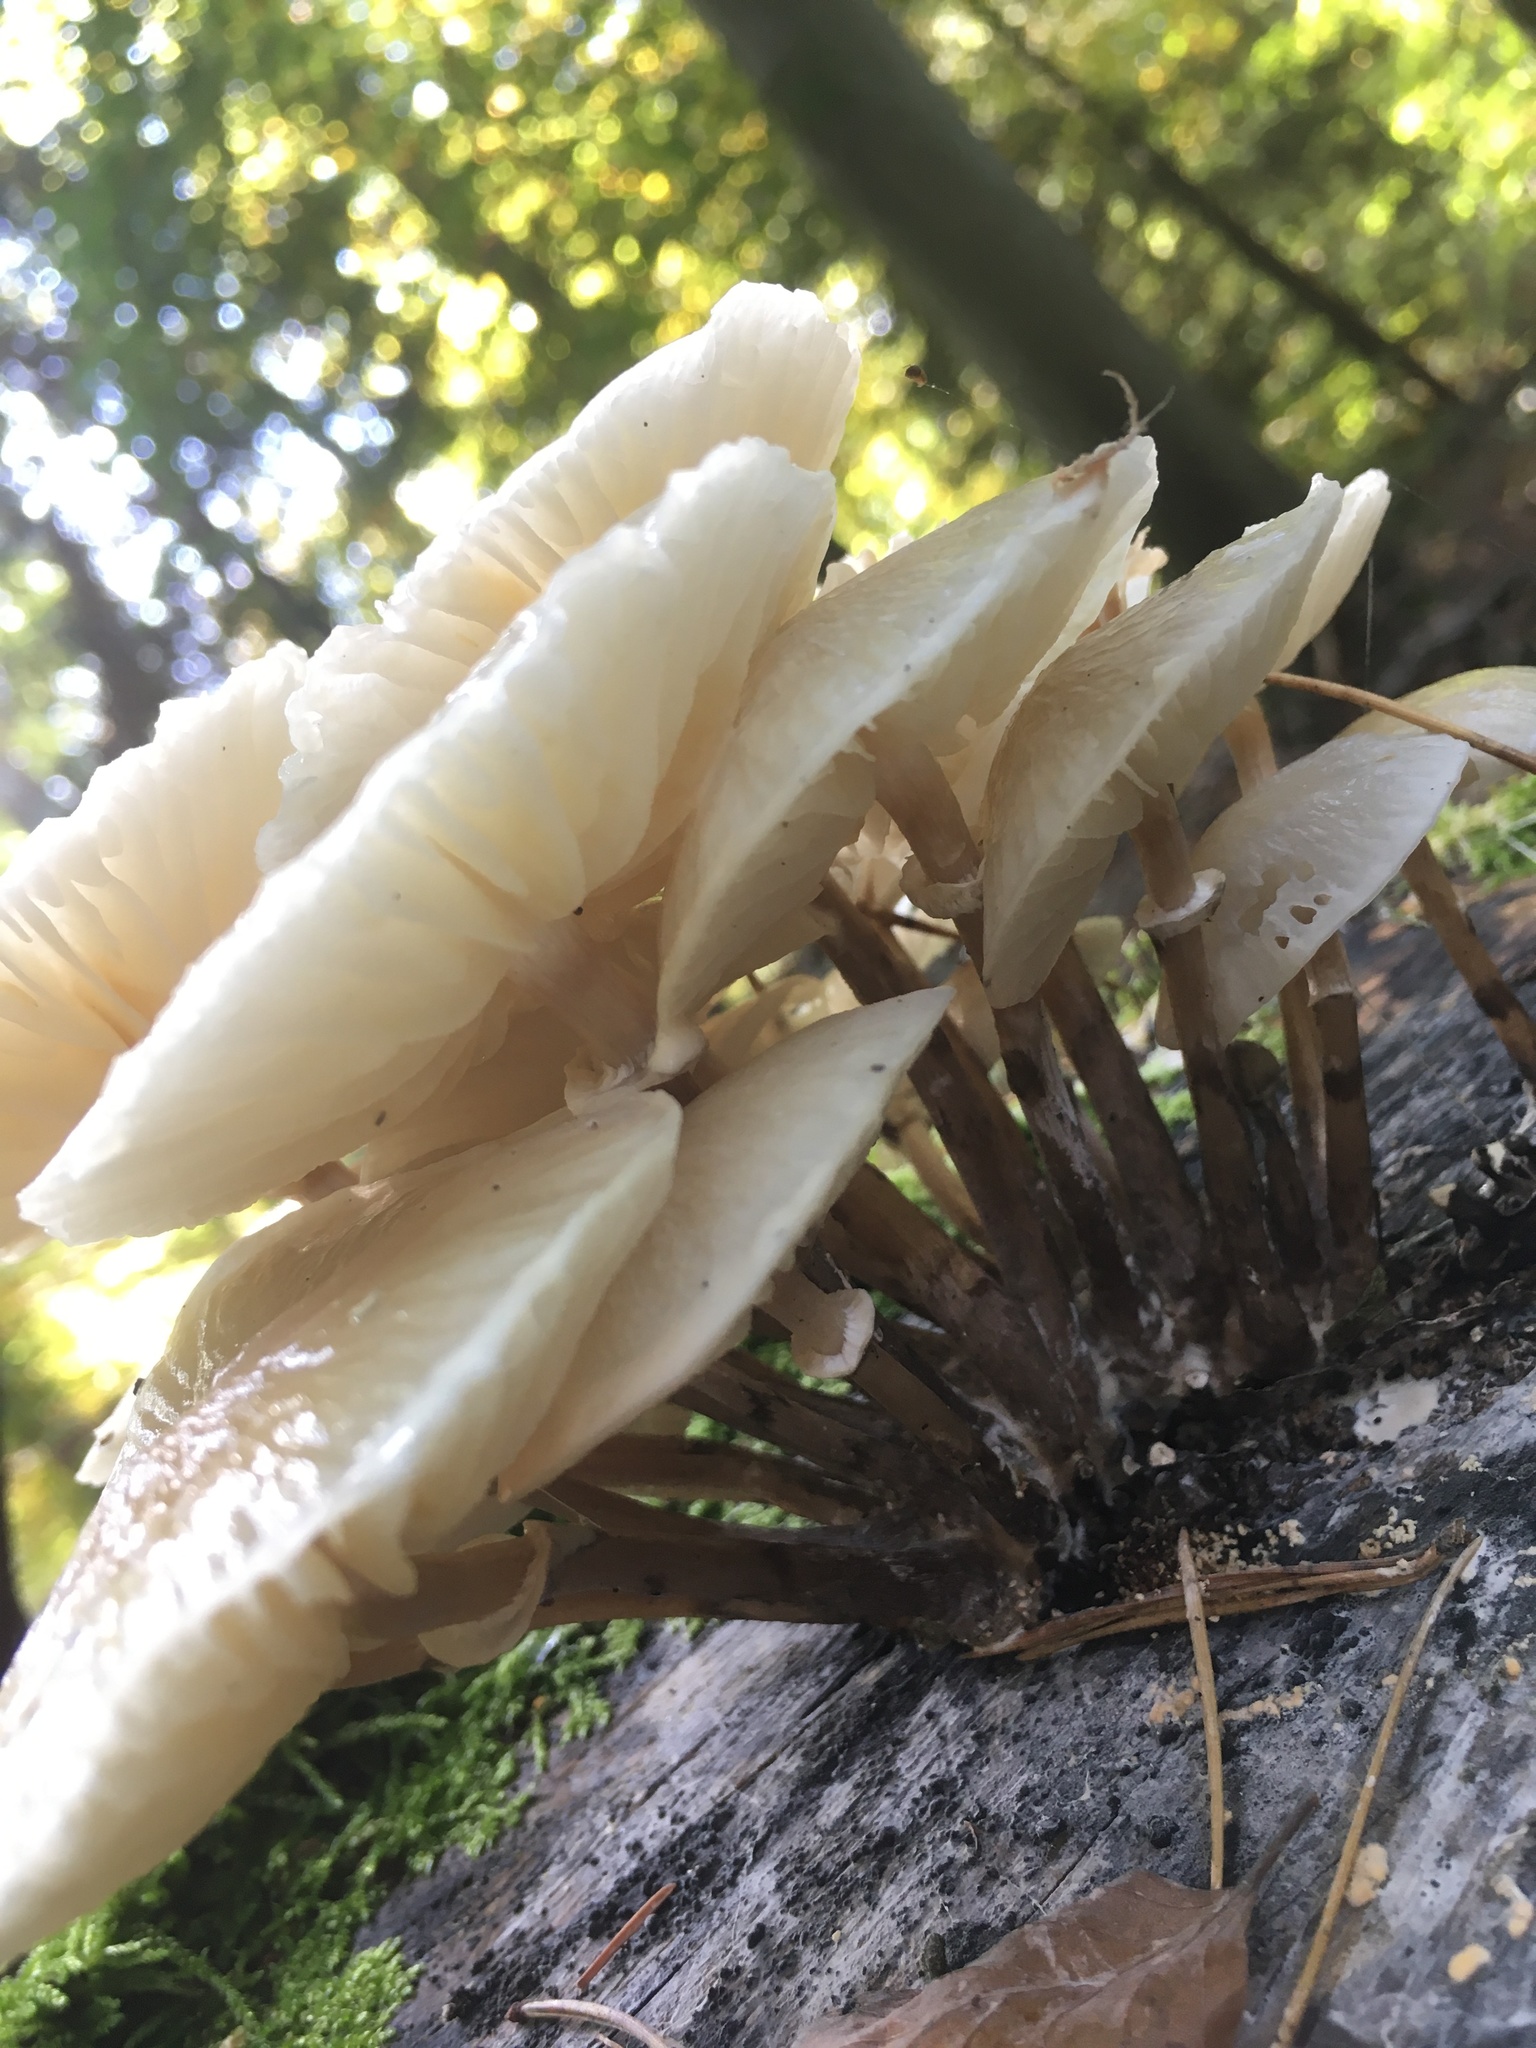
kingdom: Fungi
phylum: Basidiomycota
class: Agaricomycetes
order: Agaricales
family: Physalacriaceae
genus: Mucidula
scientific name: Mucidula mucida
